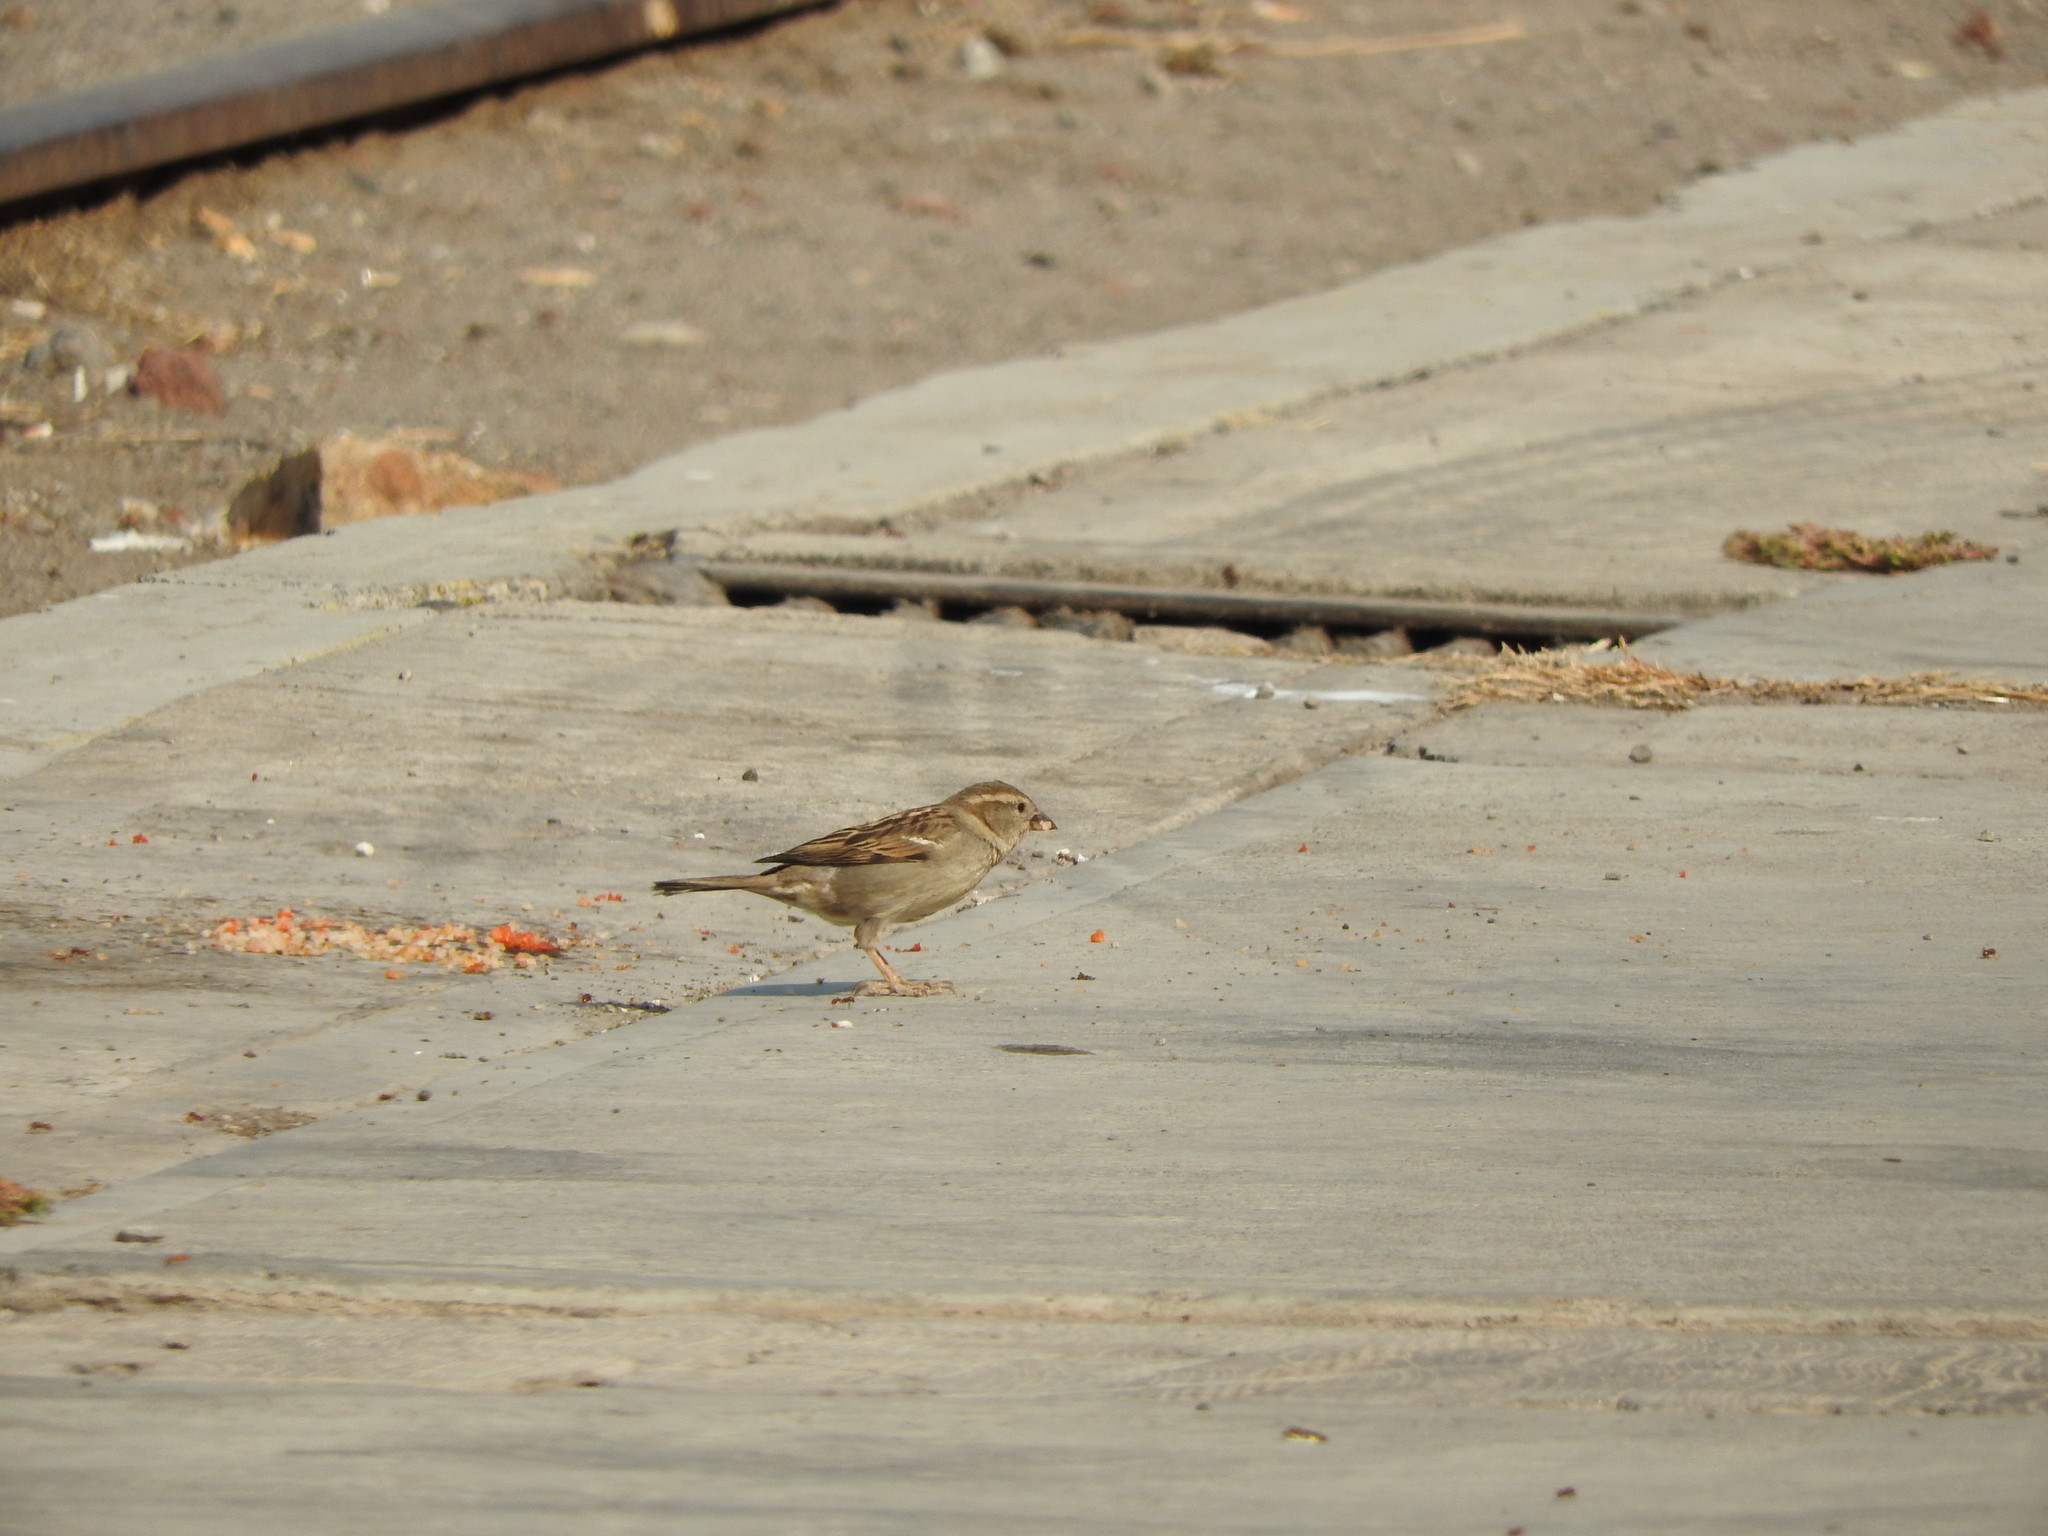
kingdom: Animalia
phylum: Chordata
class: Aves
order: Passeriformes
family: Passeridae
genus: Passer
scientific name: Passer domesticus
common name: House sparrow
